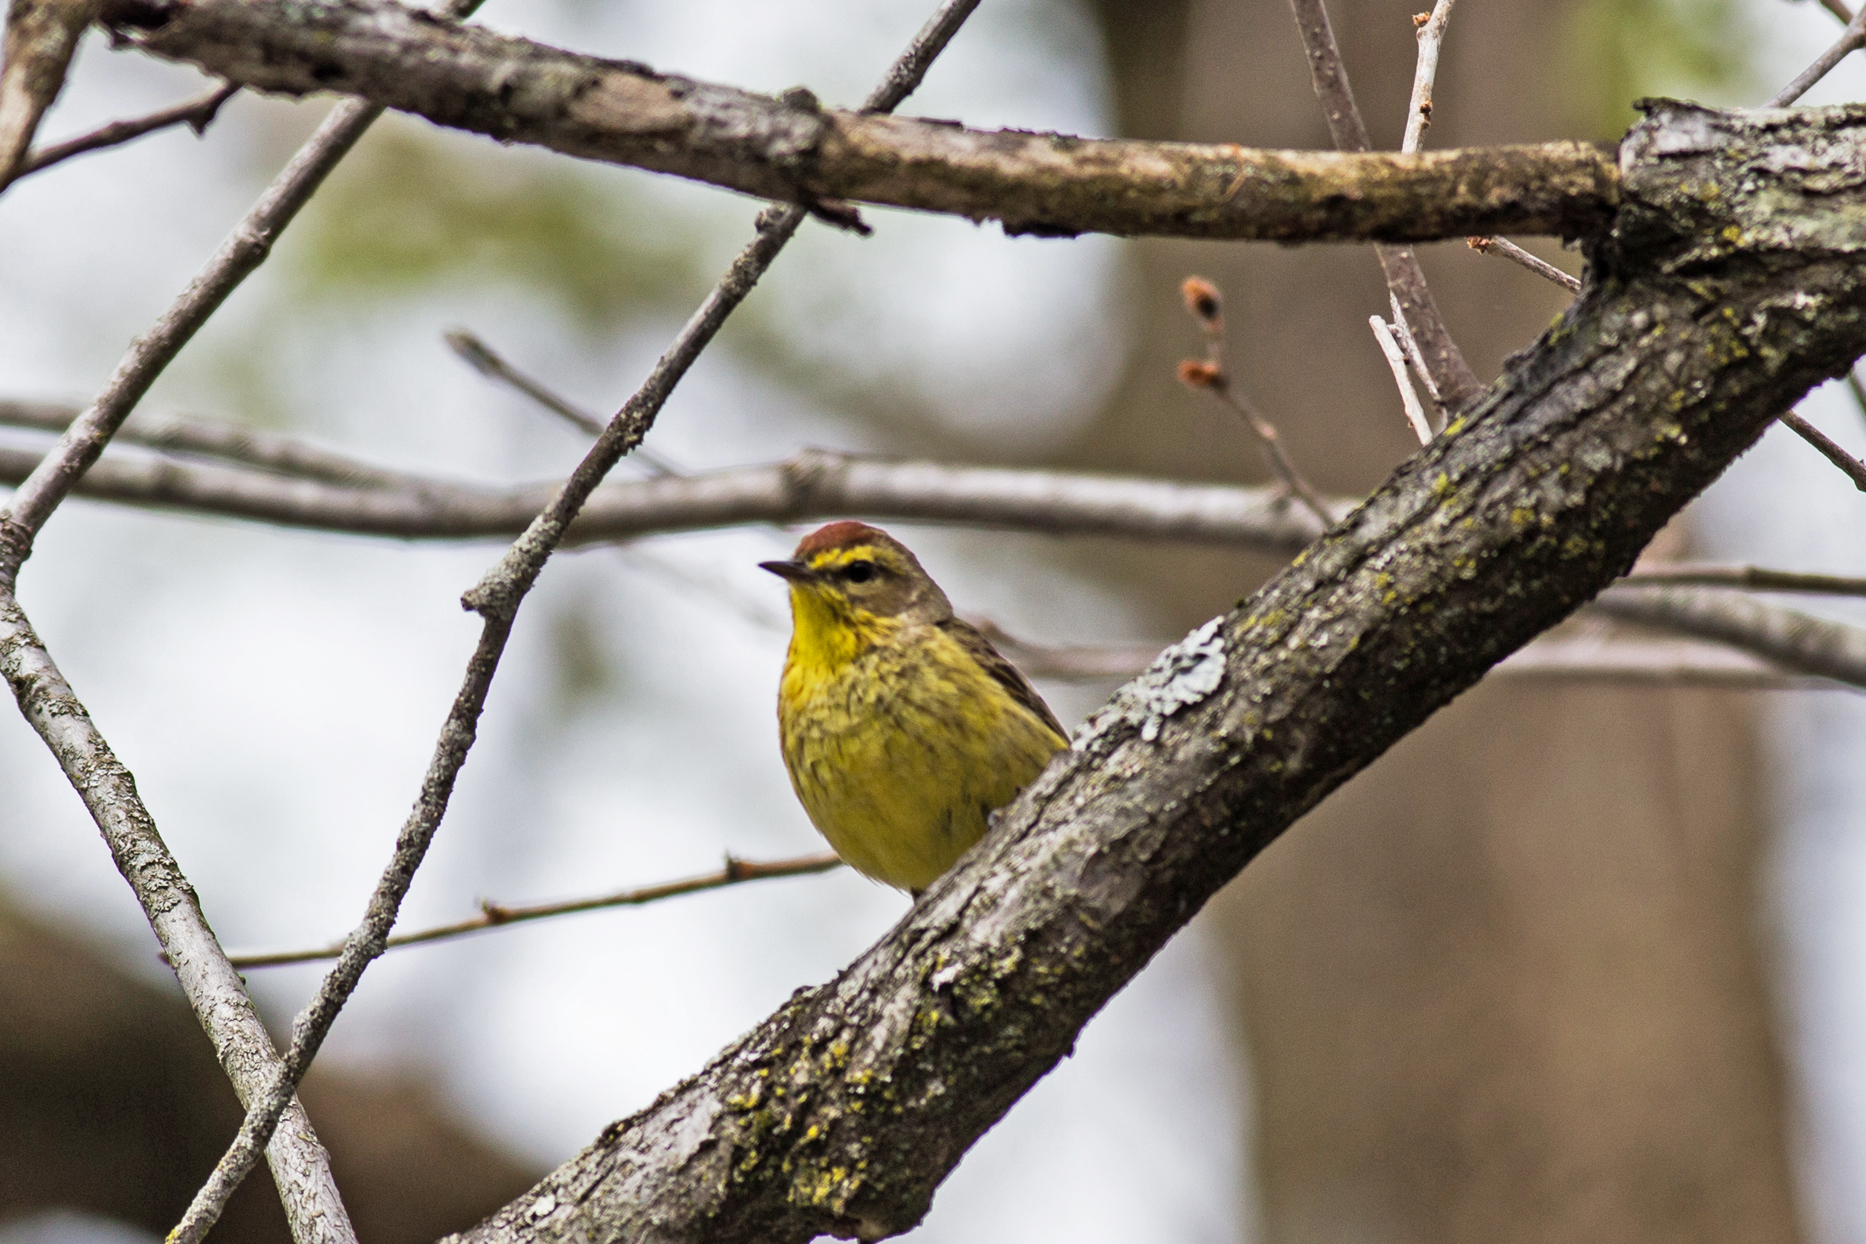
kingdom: Animalia
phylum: Chordata
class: Aves
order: Passeriformes
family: Parulidae
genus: Setophaga
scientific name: Setophaga palmarum
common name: Palm warbler
